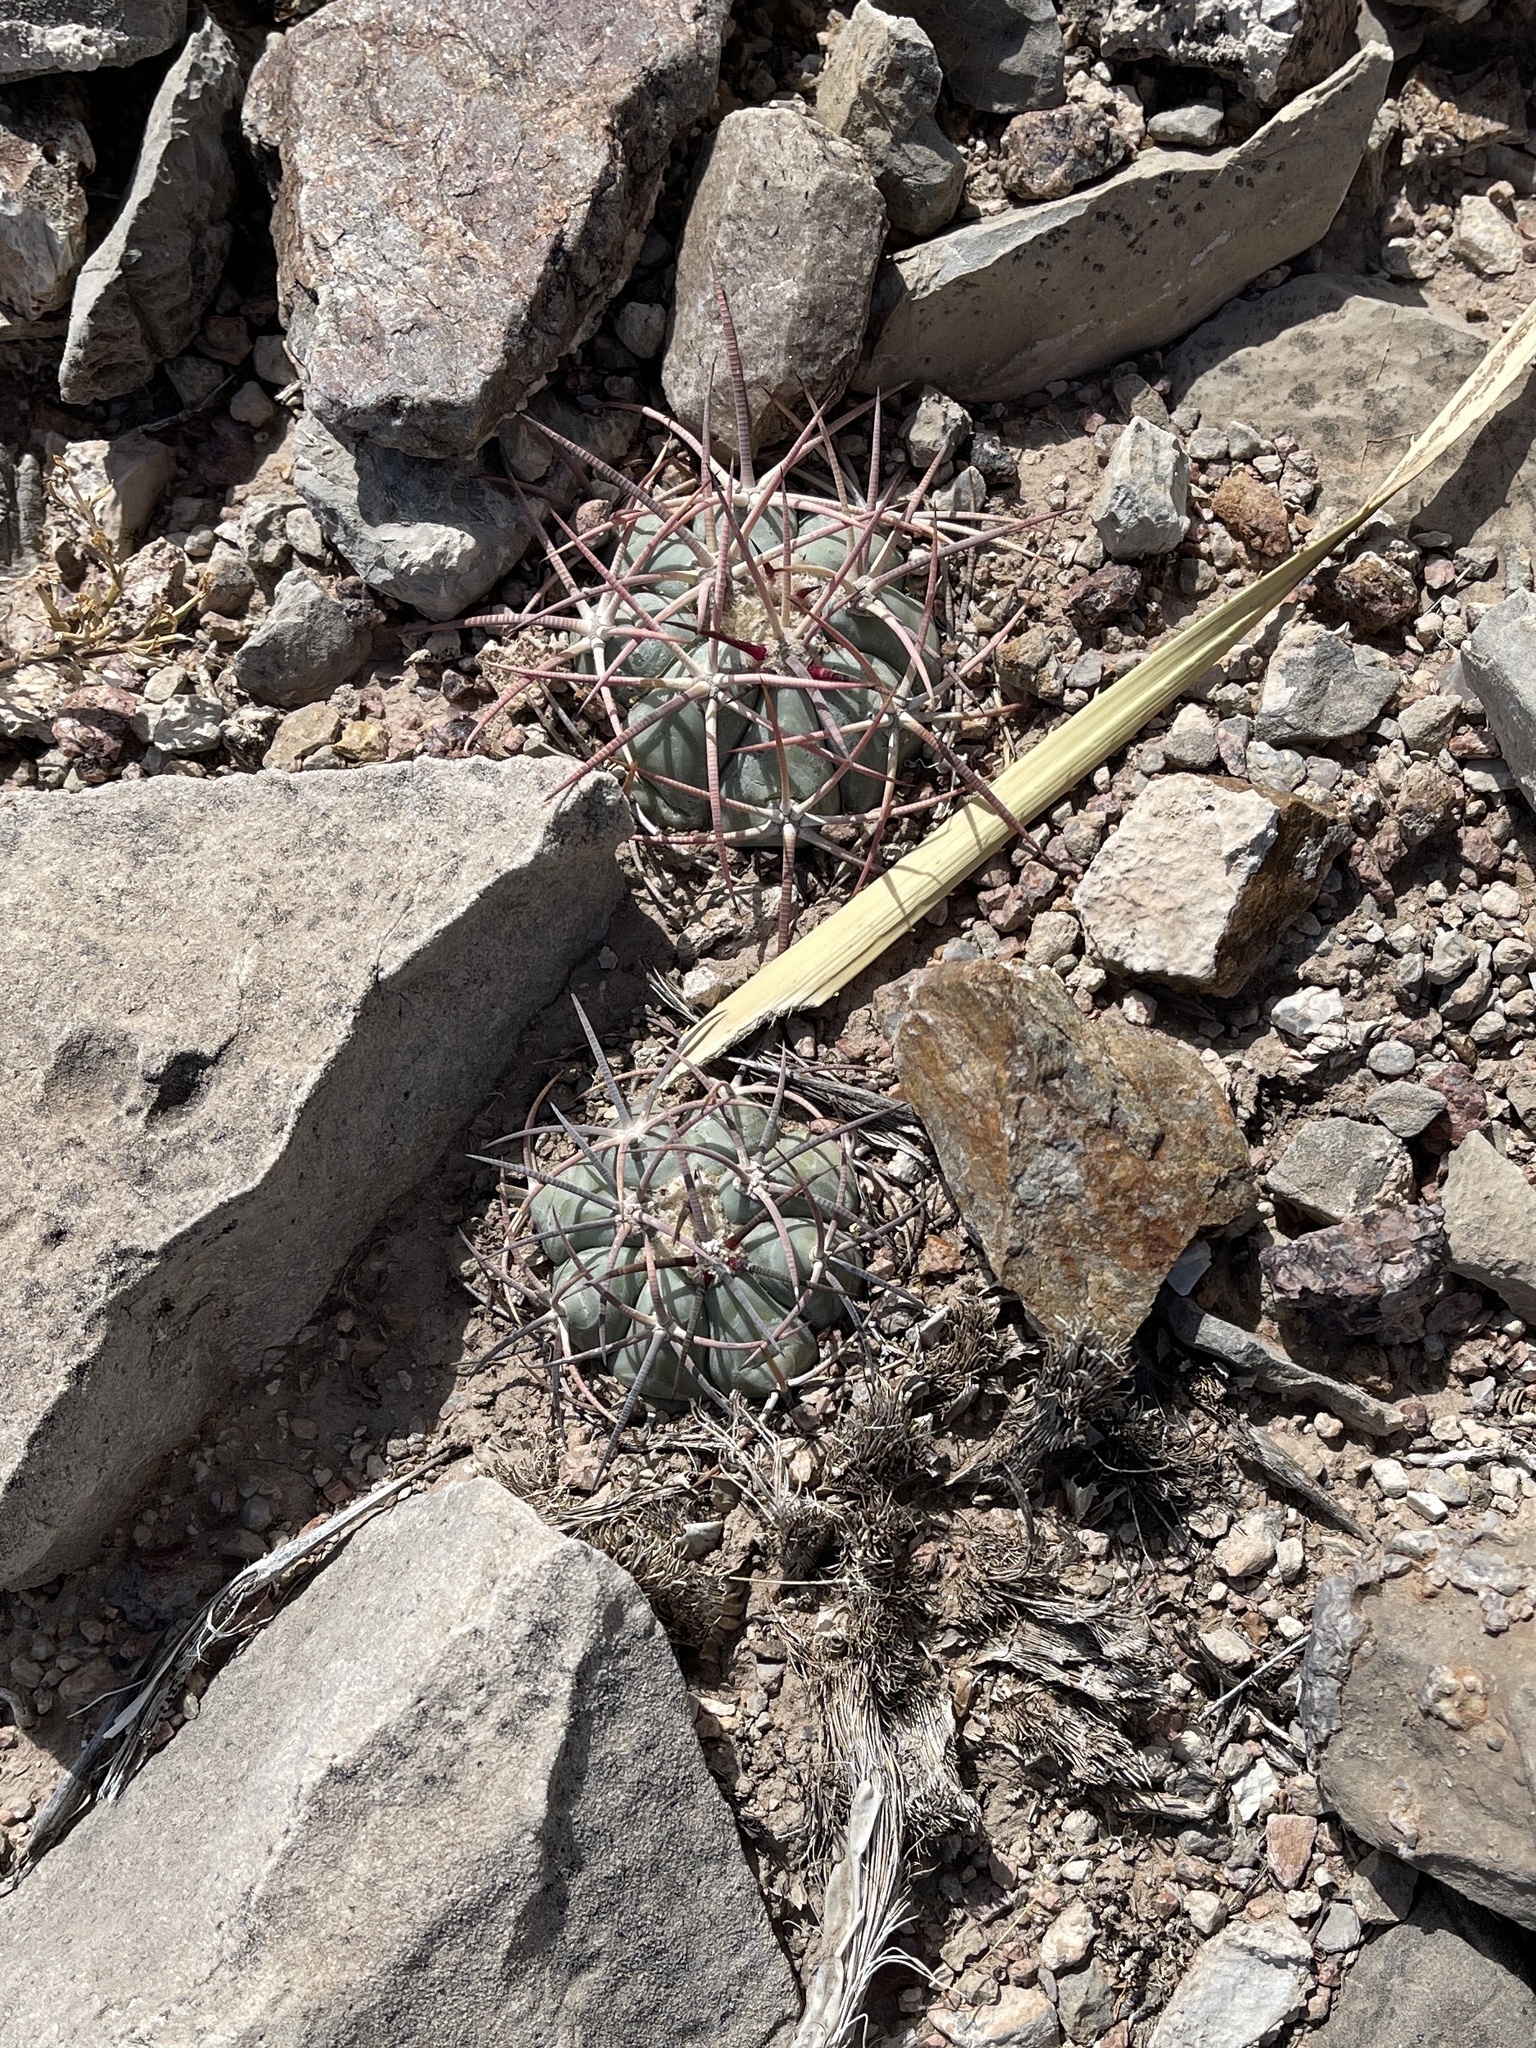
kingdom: Plantae
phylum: Tracheophyta
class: Magnoliopsida
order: Caryophyllales
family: Cactaceae
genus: Echinocactus
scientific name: Echinocactus horizonthalonius
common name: Devilshead
